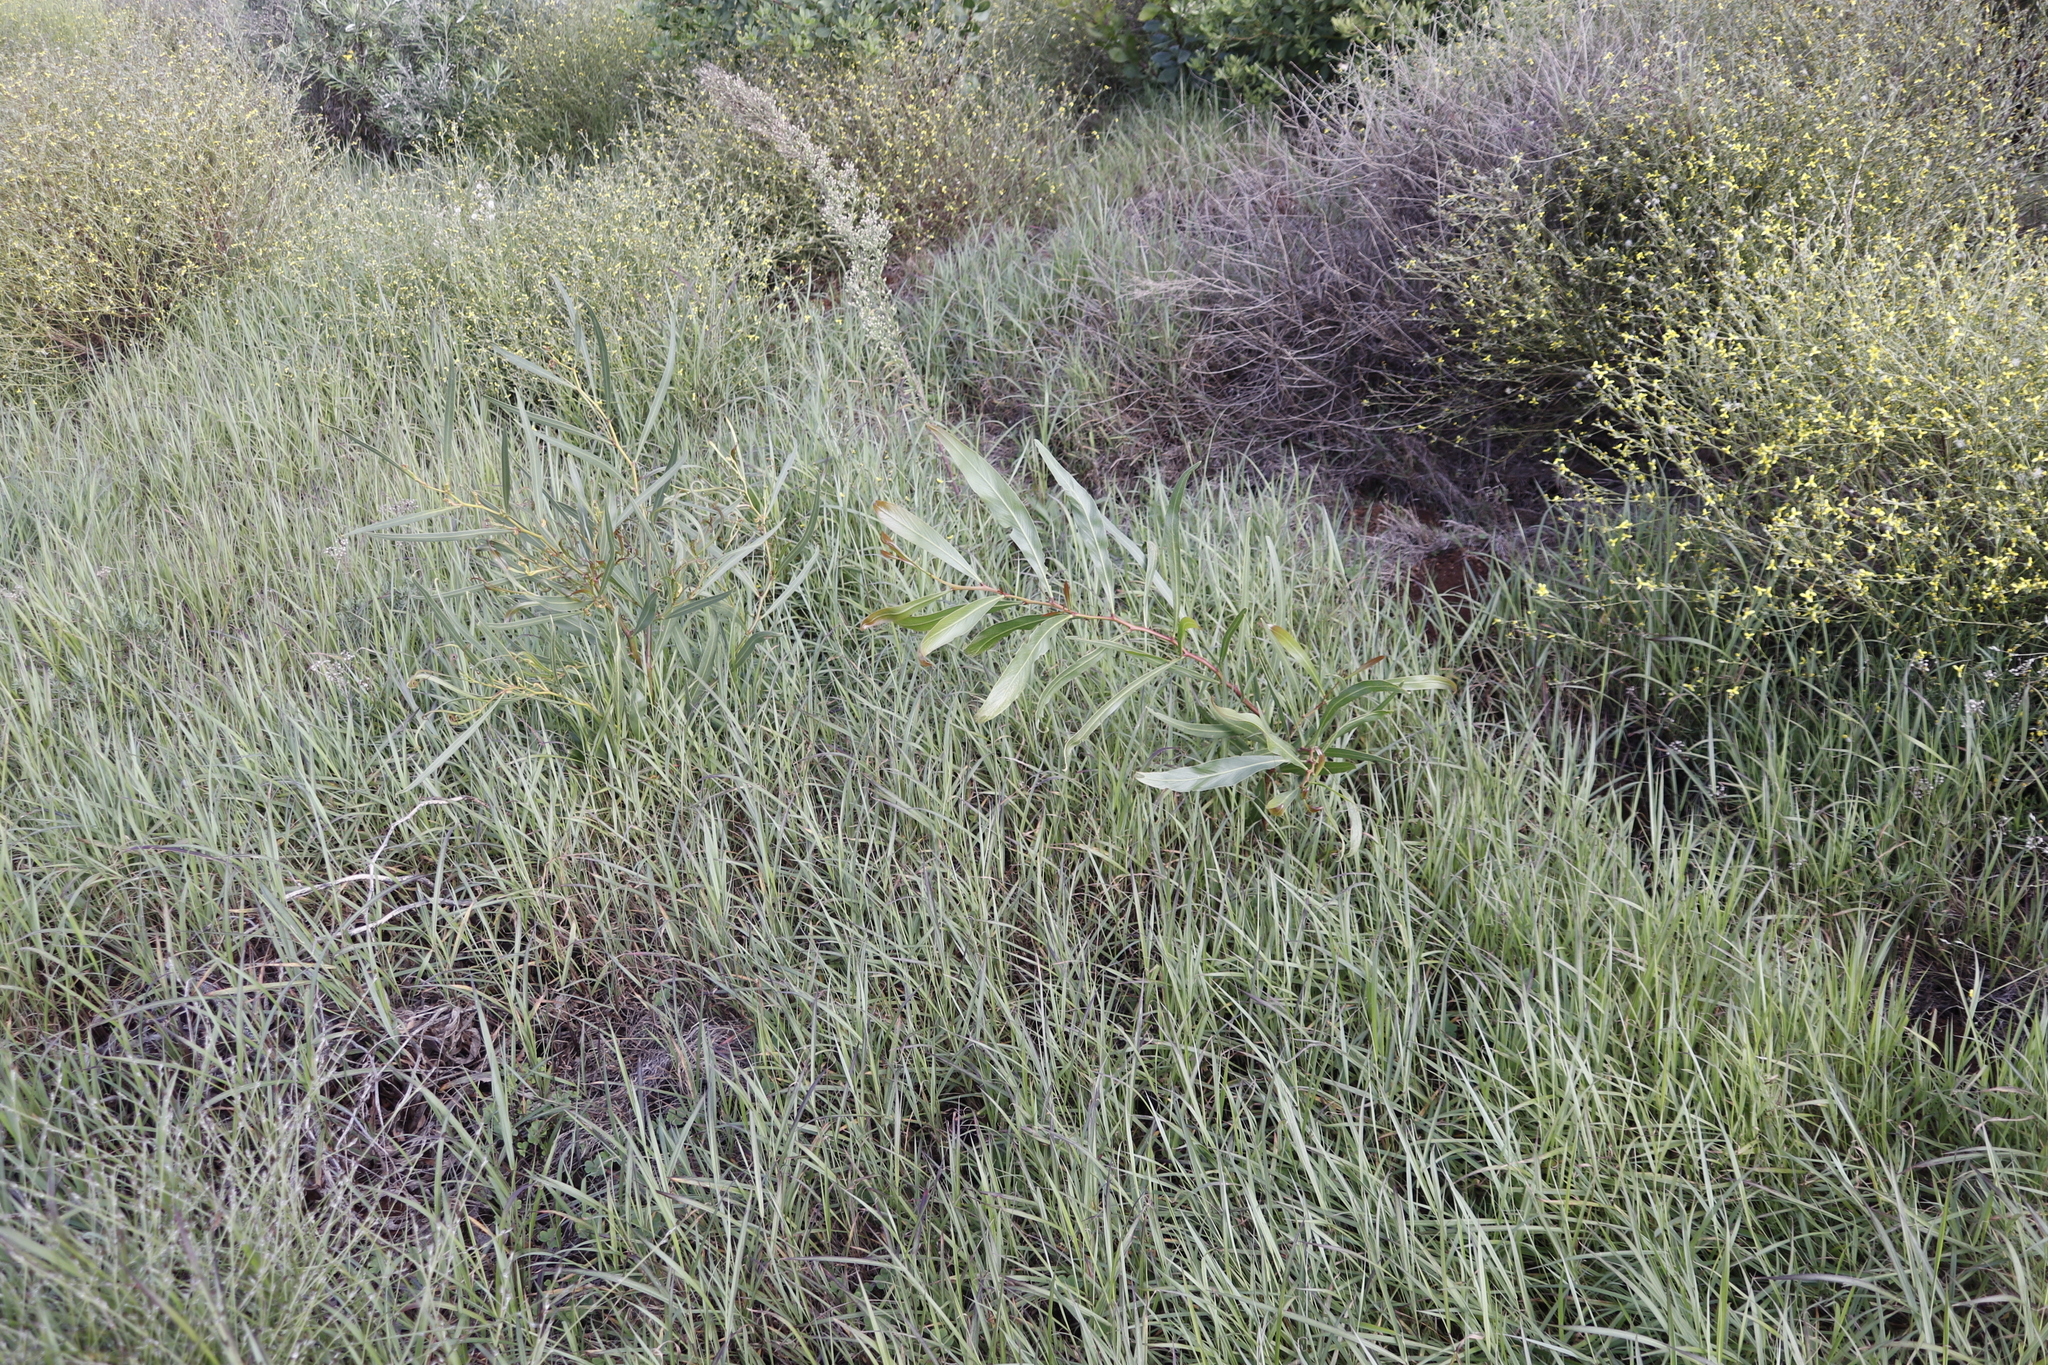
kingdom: Plantae
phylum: Tracheophyta
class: Magnoliopsida
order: Fabales
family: Fabaceae
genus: Acacia
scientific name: Acacia saligna
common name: Orange wattle
